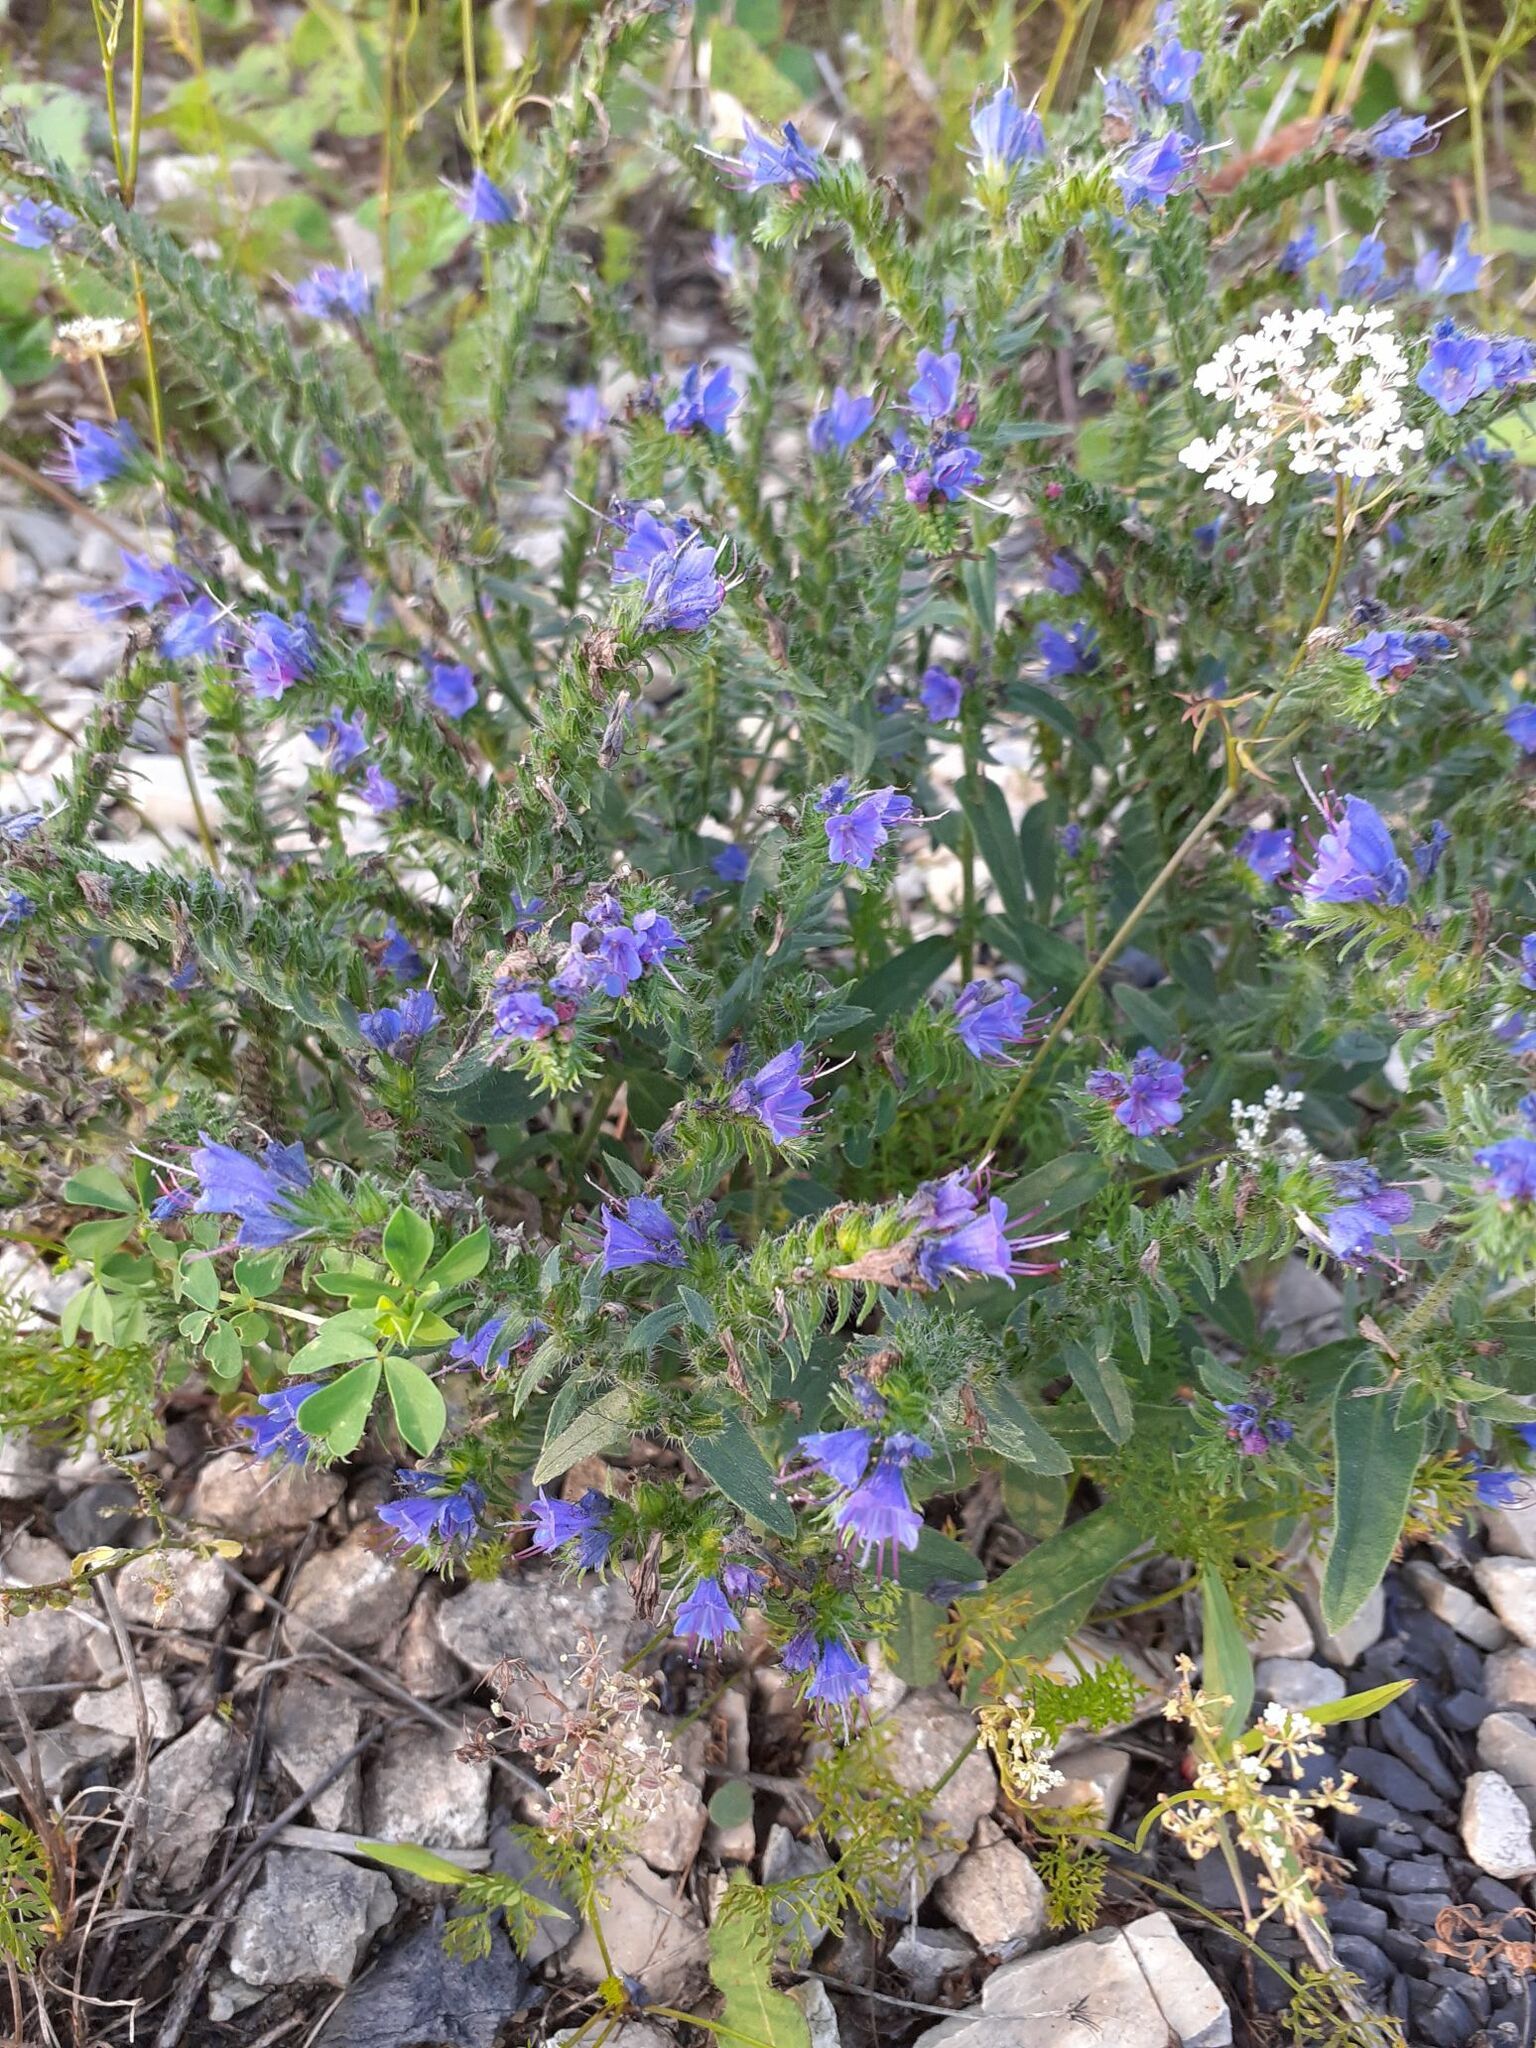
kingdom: Plantae
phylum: Tracheophyta
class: Magnoliopsida
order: Boraginales
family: Boraginaceae
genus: Echium
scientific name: Echium vulgare
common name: Common viper's bugloss
